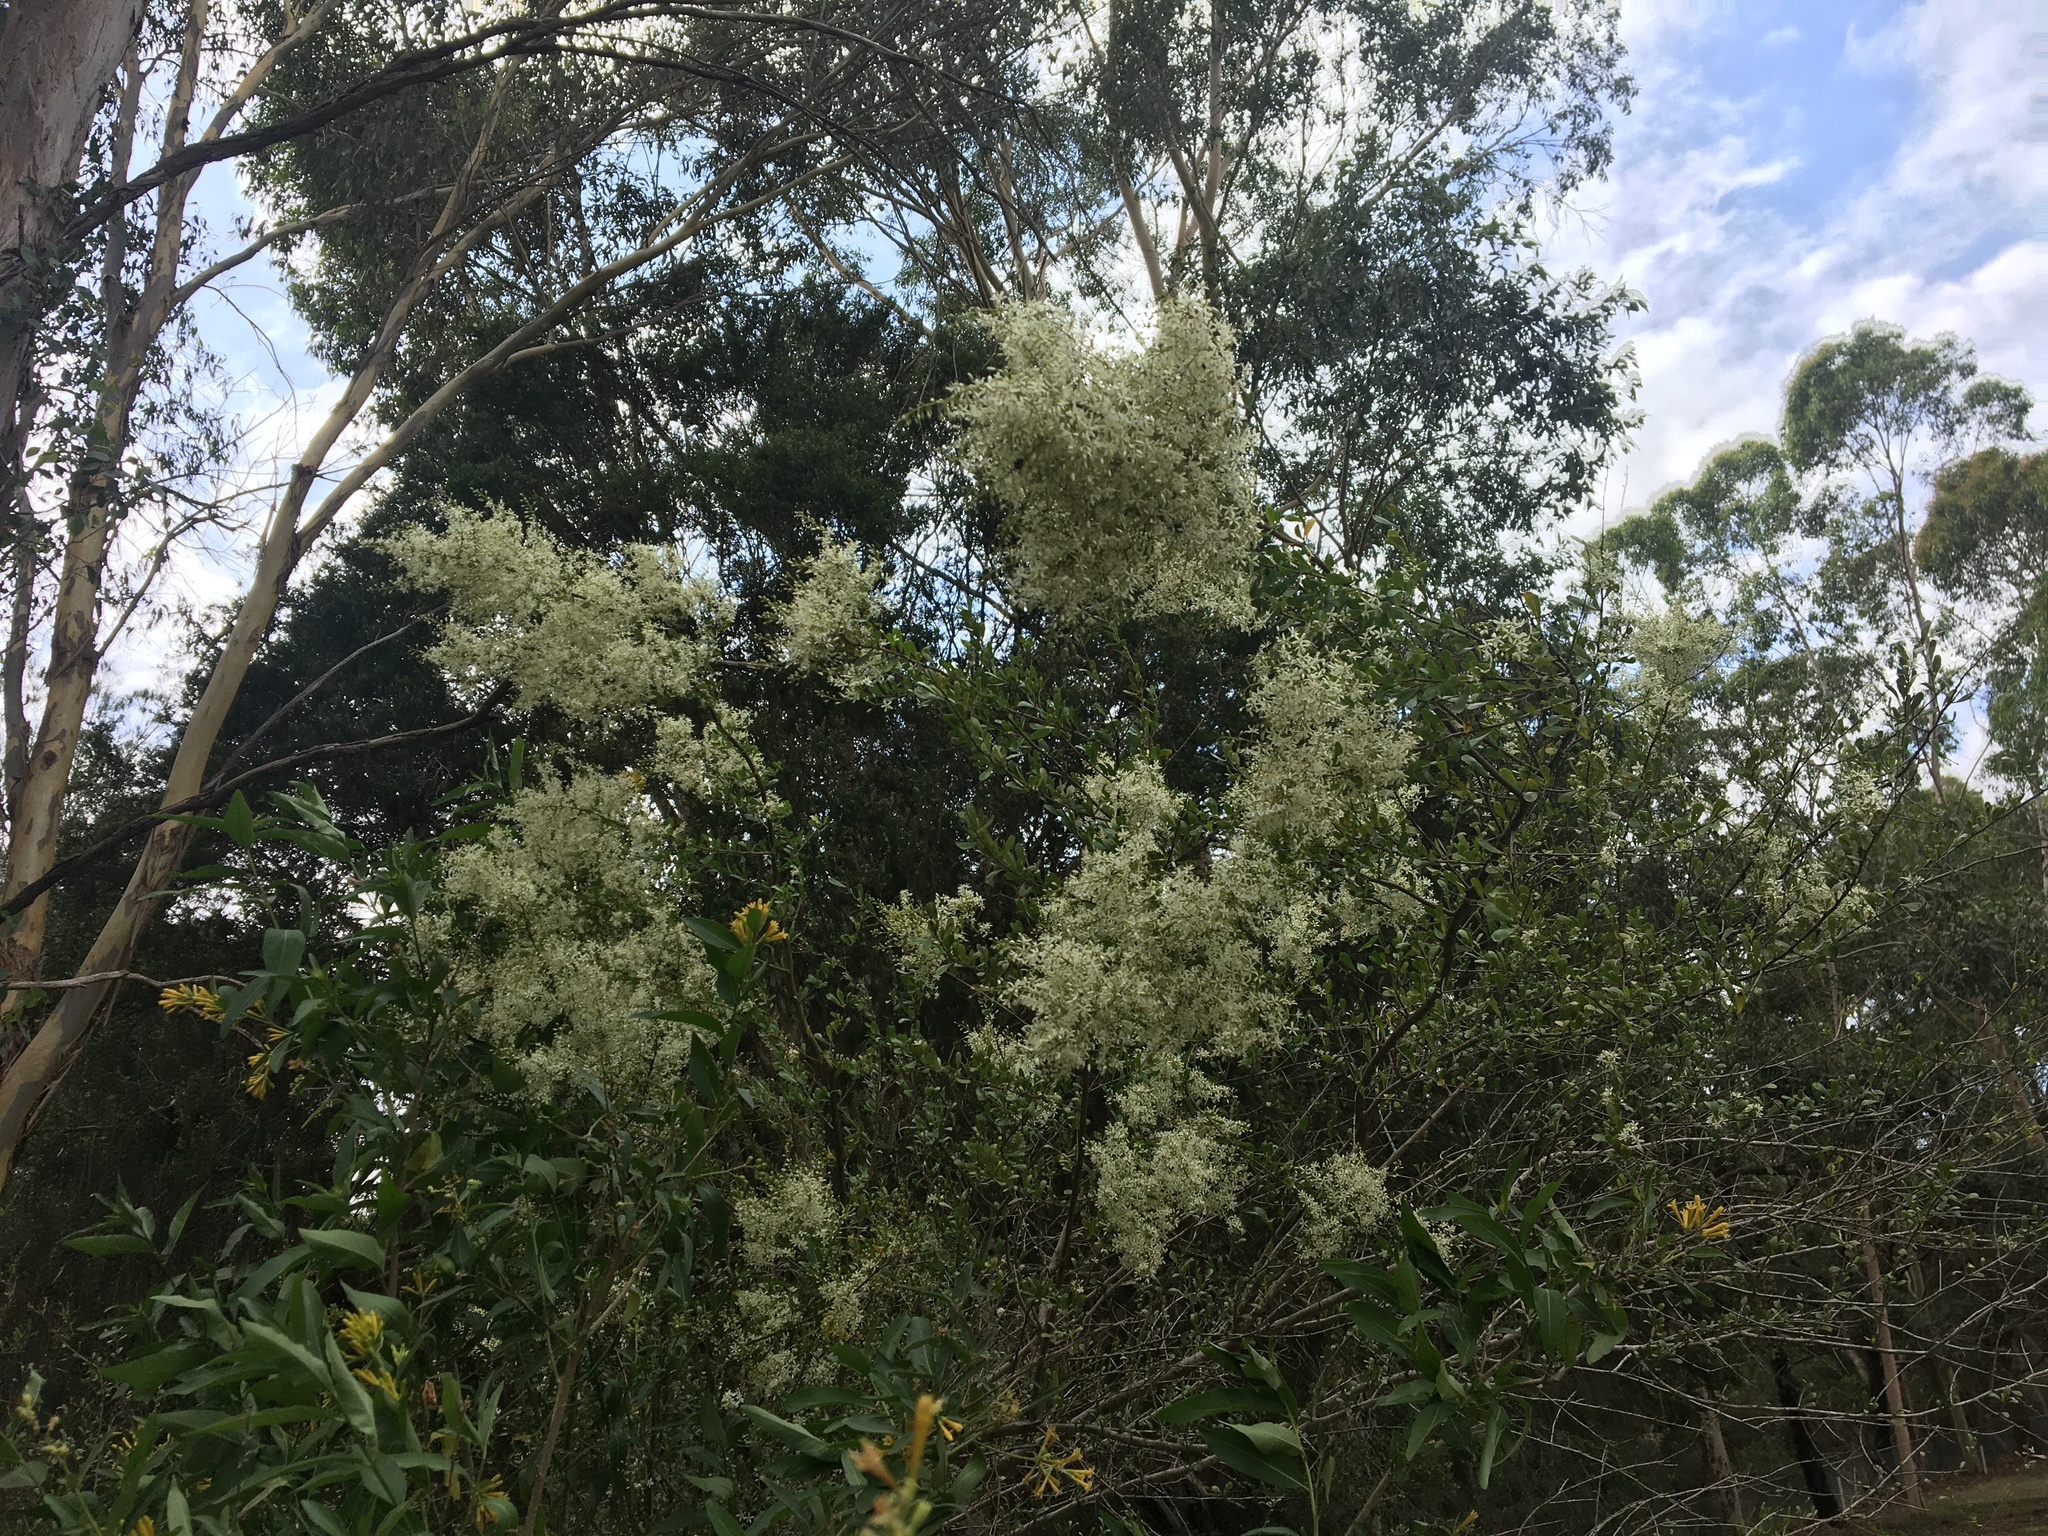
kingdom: Plantae
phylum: Tracheophyta
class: Magnoliopsida
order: Apiales
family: Pittosporaceae
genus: Bursaria
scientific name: Bursaria spinosa
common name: Australian blackthorn
